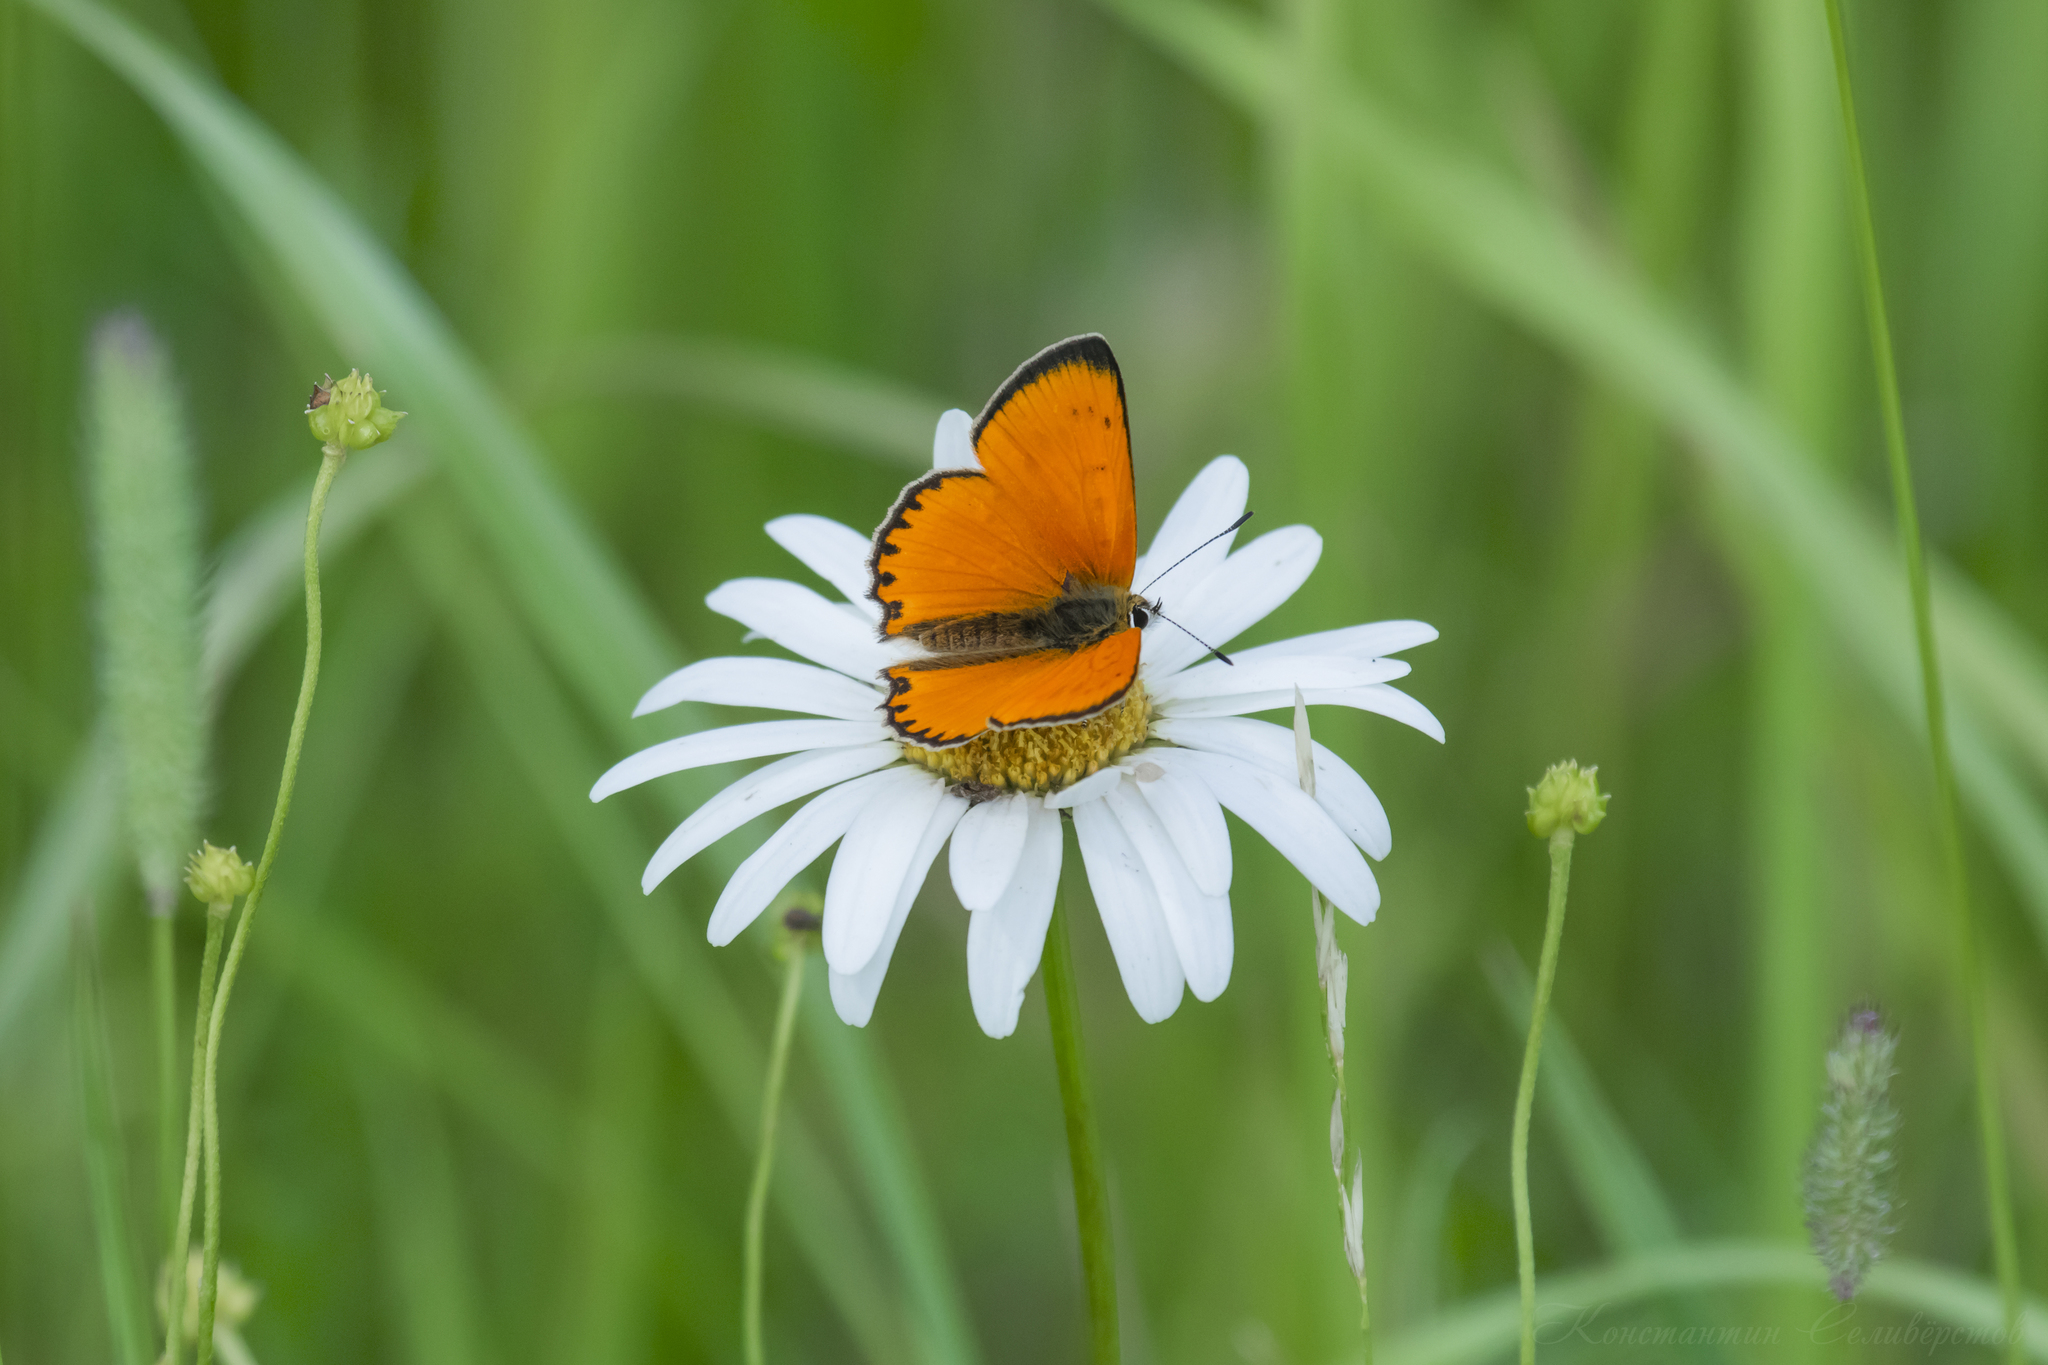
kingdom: Animalia
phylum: Arthropoda
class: Insecta
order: Lepidoptera
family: Lycaenidae
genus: Lycaena
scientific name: Lycaena virgaureae
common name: Scarce copper
